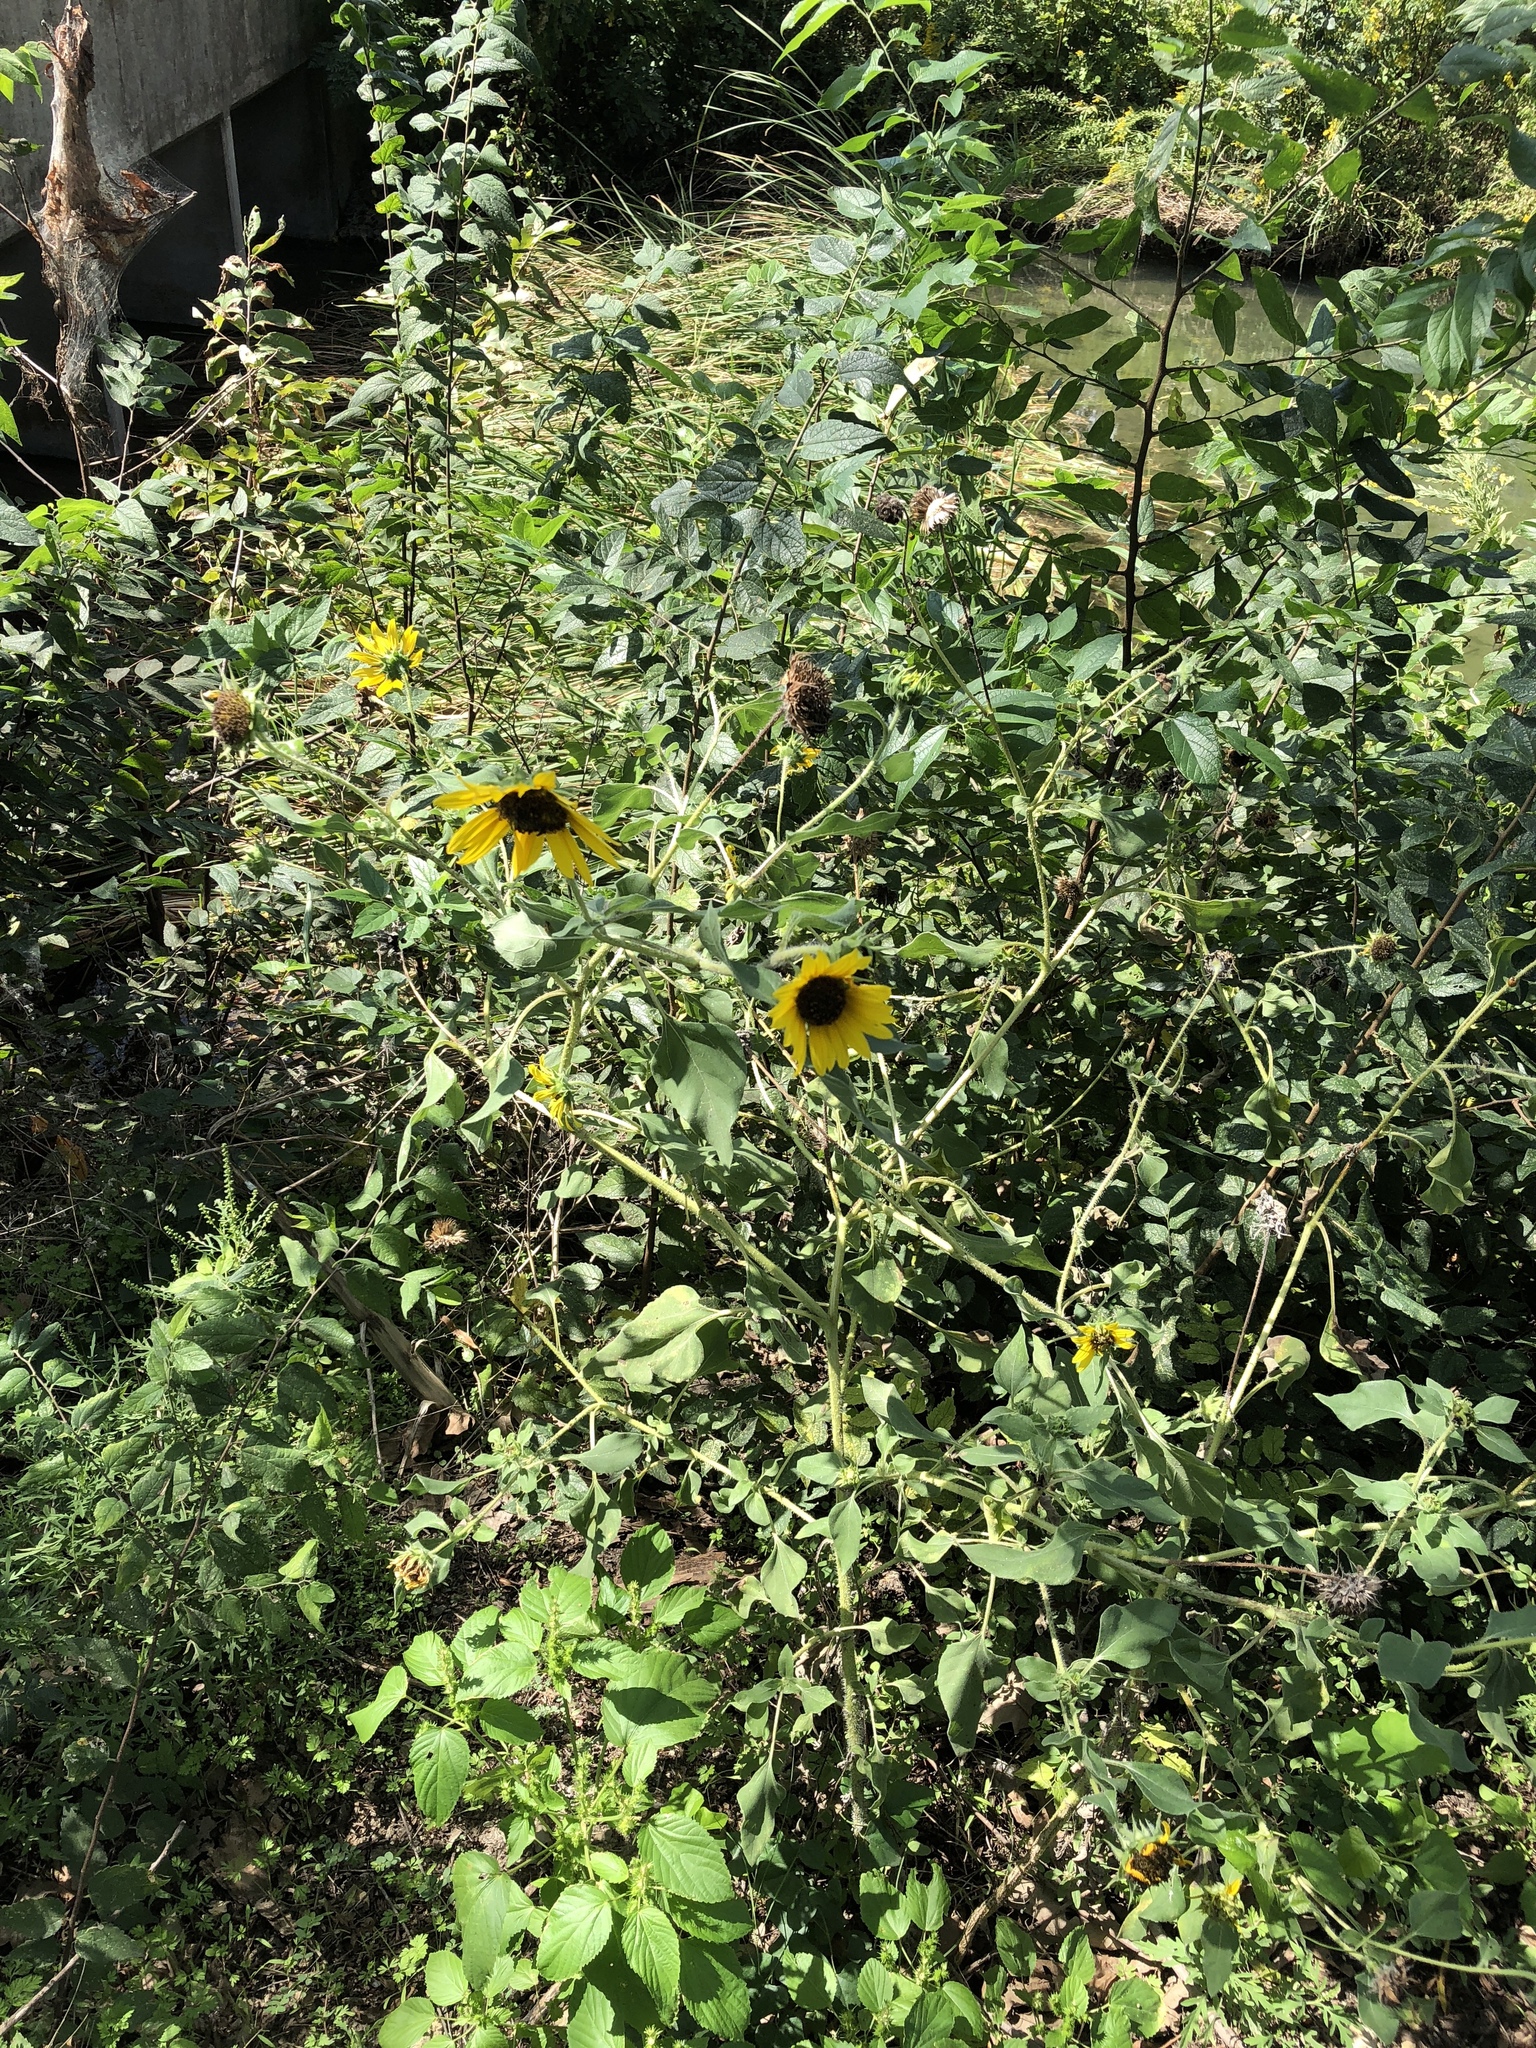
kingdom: Plantae
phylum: Tracheophyta
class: Magnoliopsida
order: Asterales
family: Asteraceae
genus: Helianthus
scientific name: Helianthus annuus
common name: Sunflower
